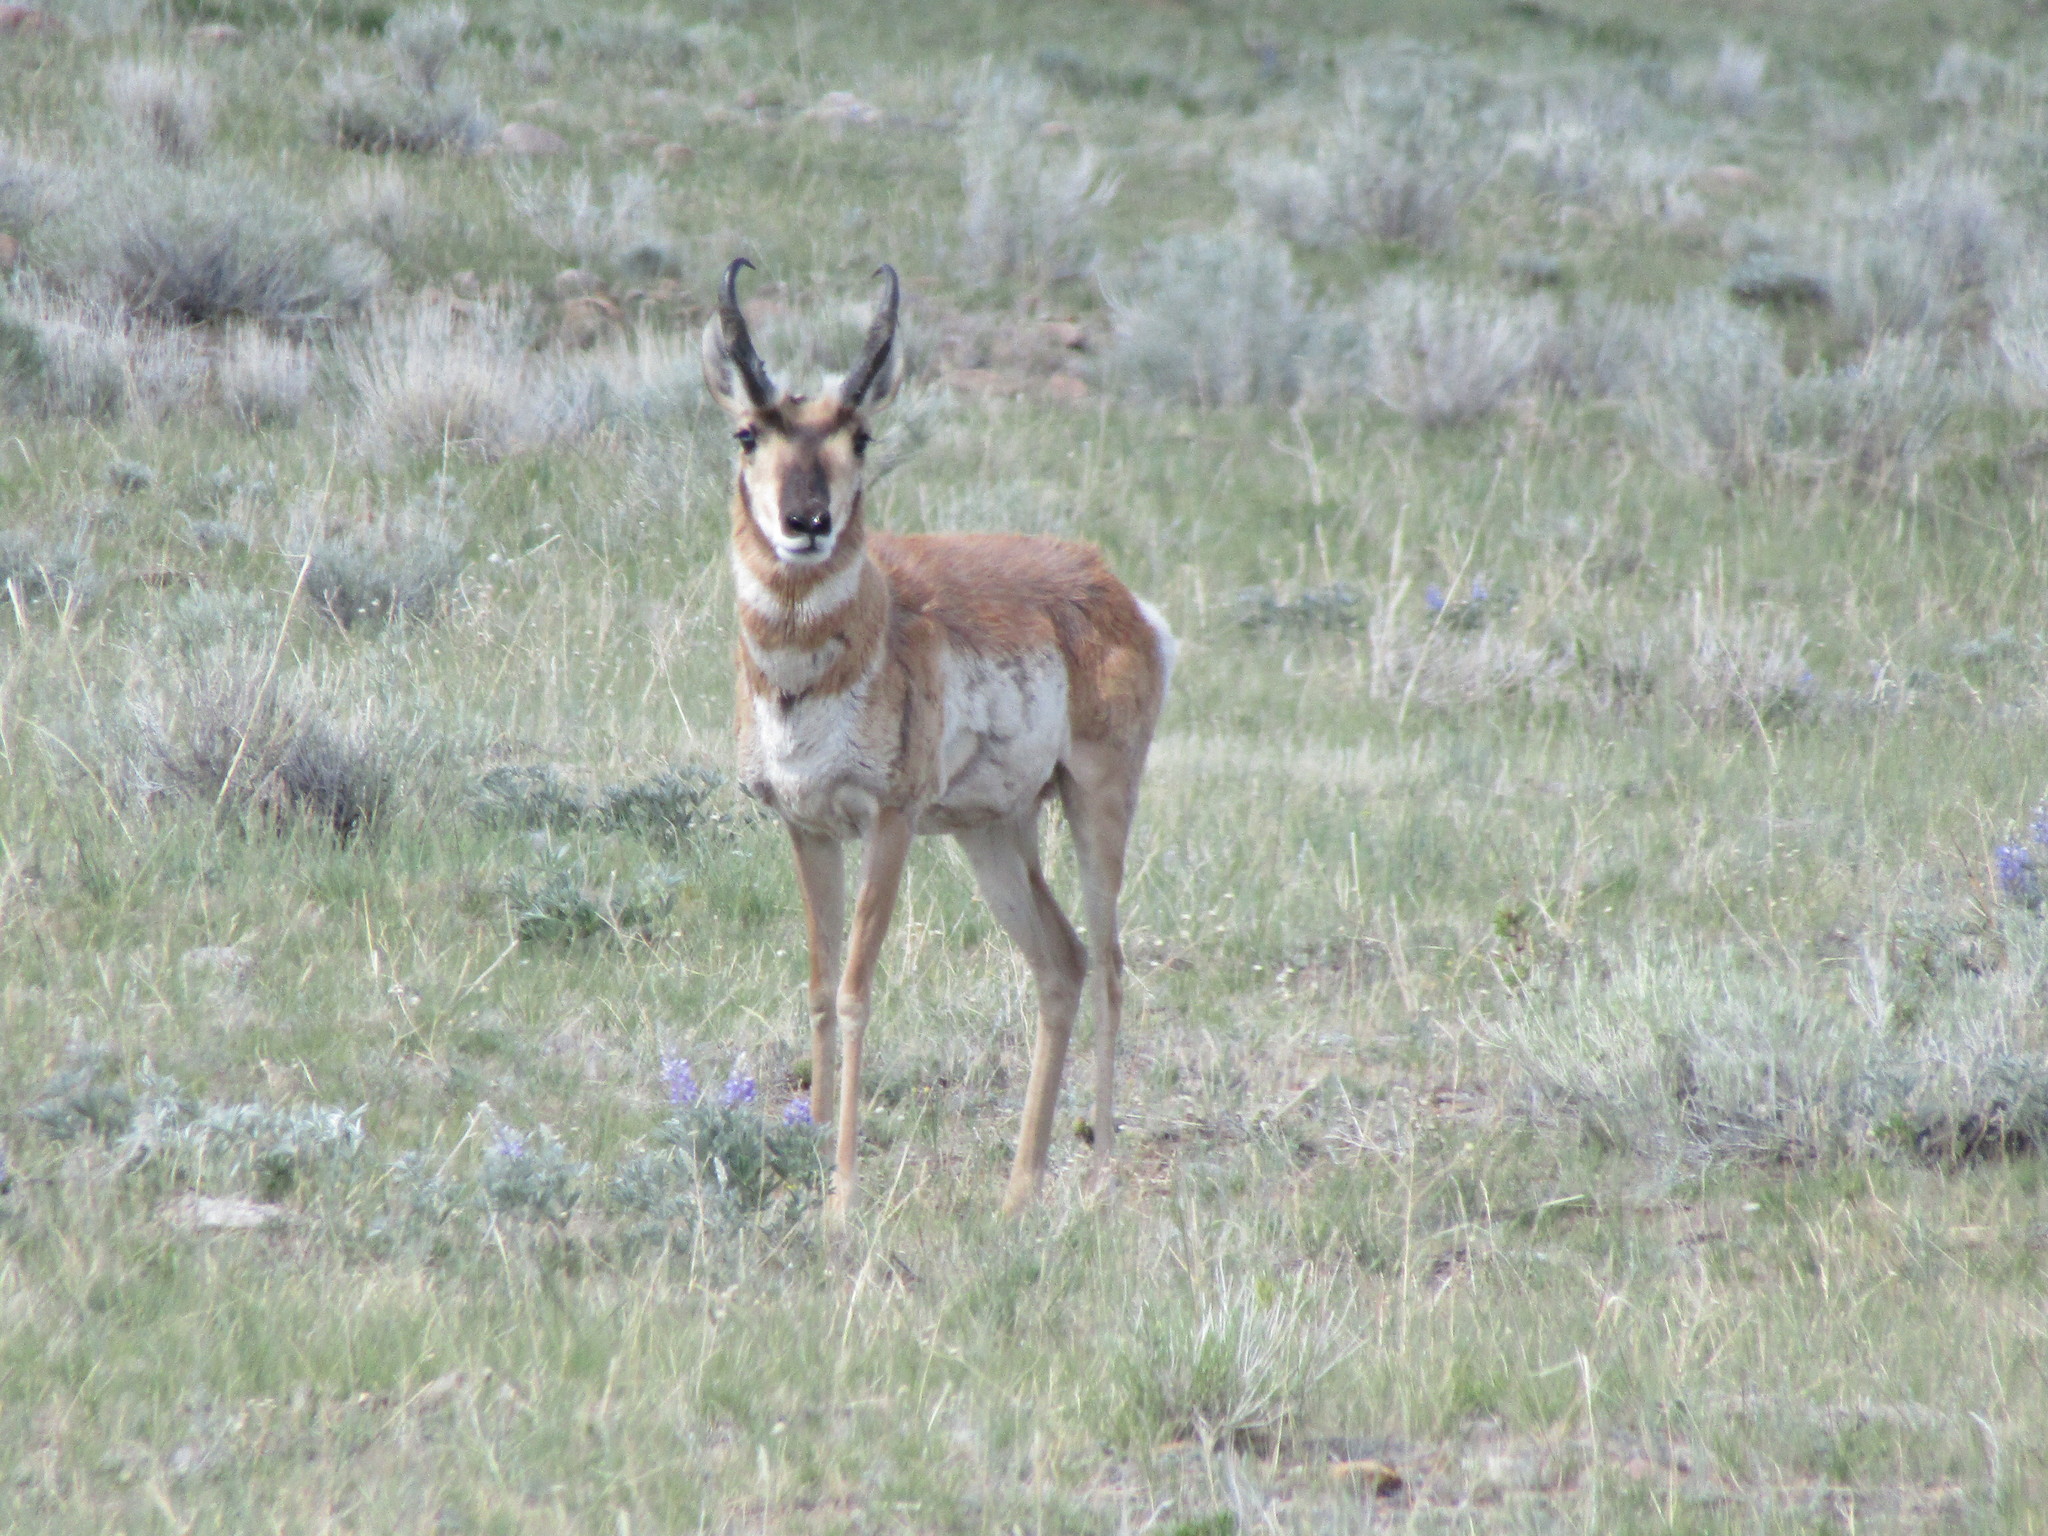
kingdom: Animalia
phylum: Chordata
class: Mammalia
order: Artiodactyla
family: Antilocapridae
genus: Antilocapra
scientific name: Antilocapra americana
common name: Pronghorn
